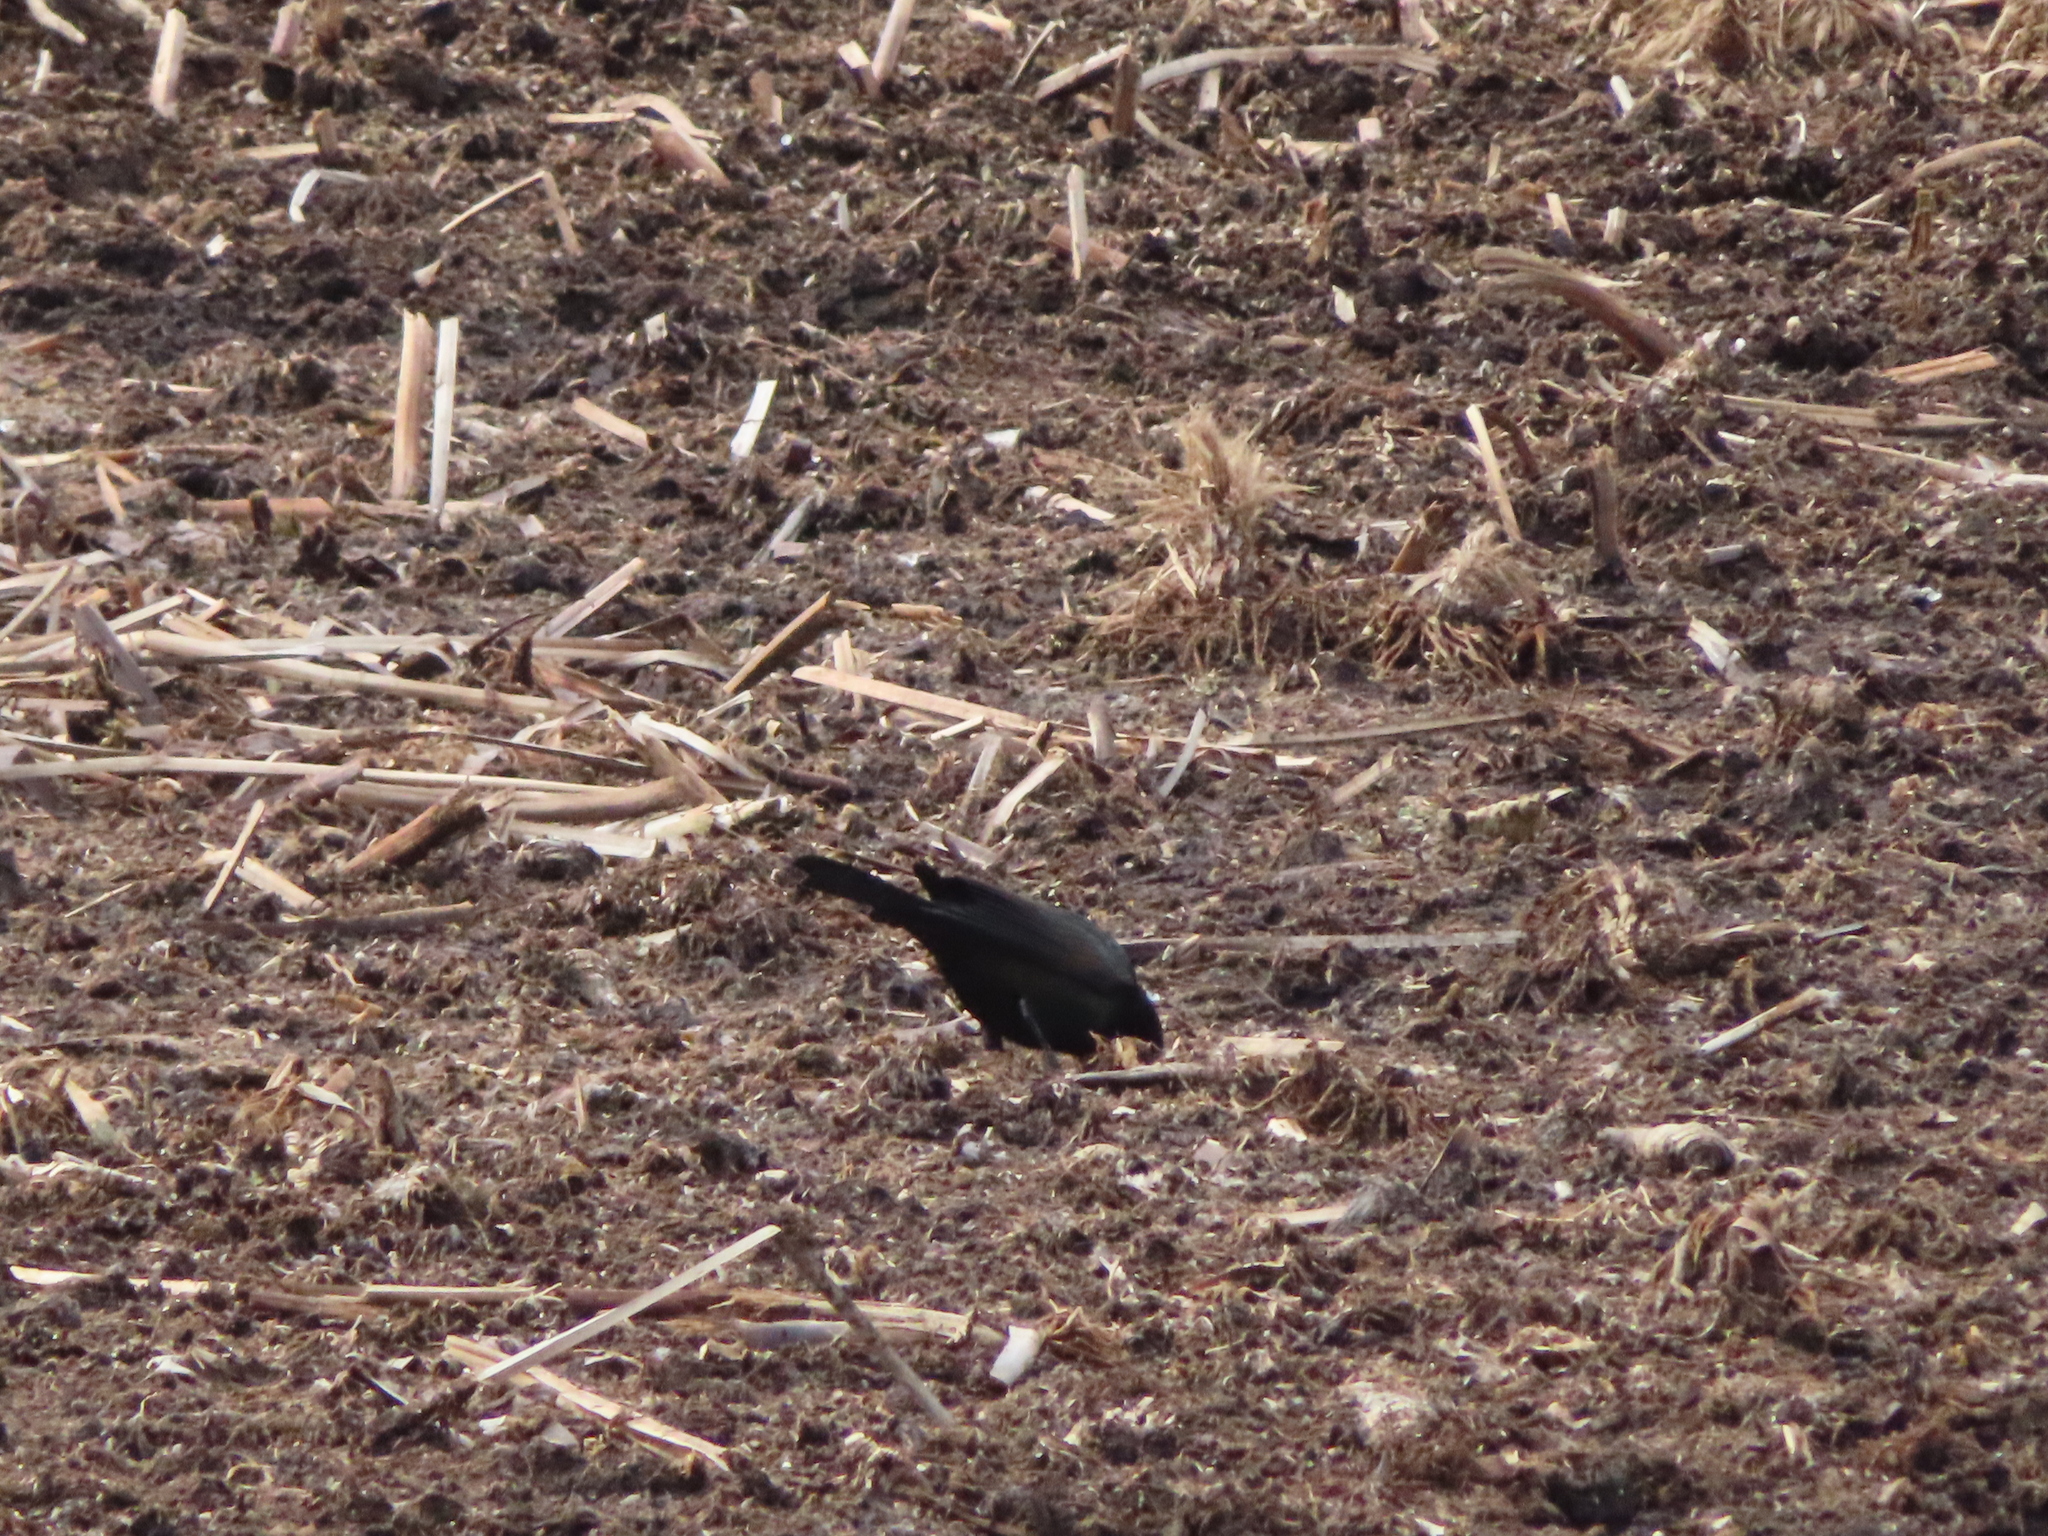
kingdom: Animalia
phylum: Chordata
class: Aves
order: Passeriformes
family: Icteridae
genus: Quiscalus
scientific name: Quiscalus quiscula
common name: Common grackle
